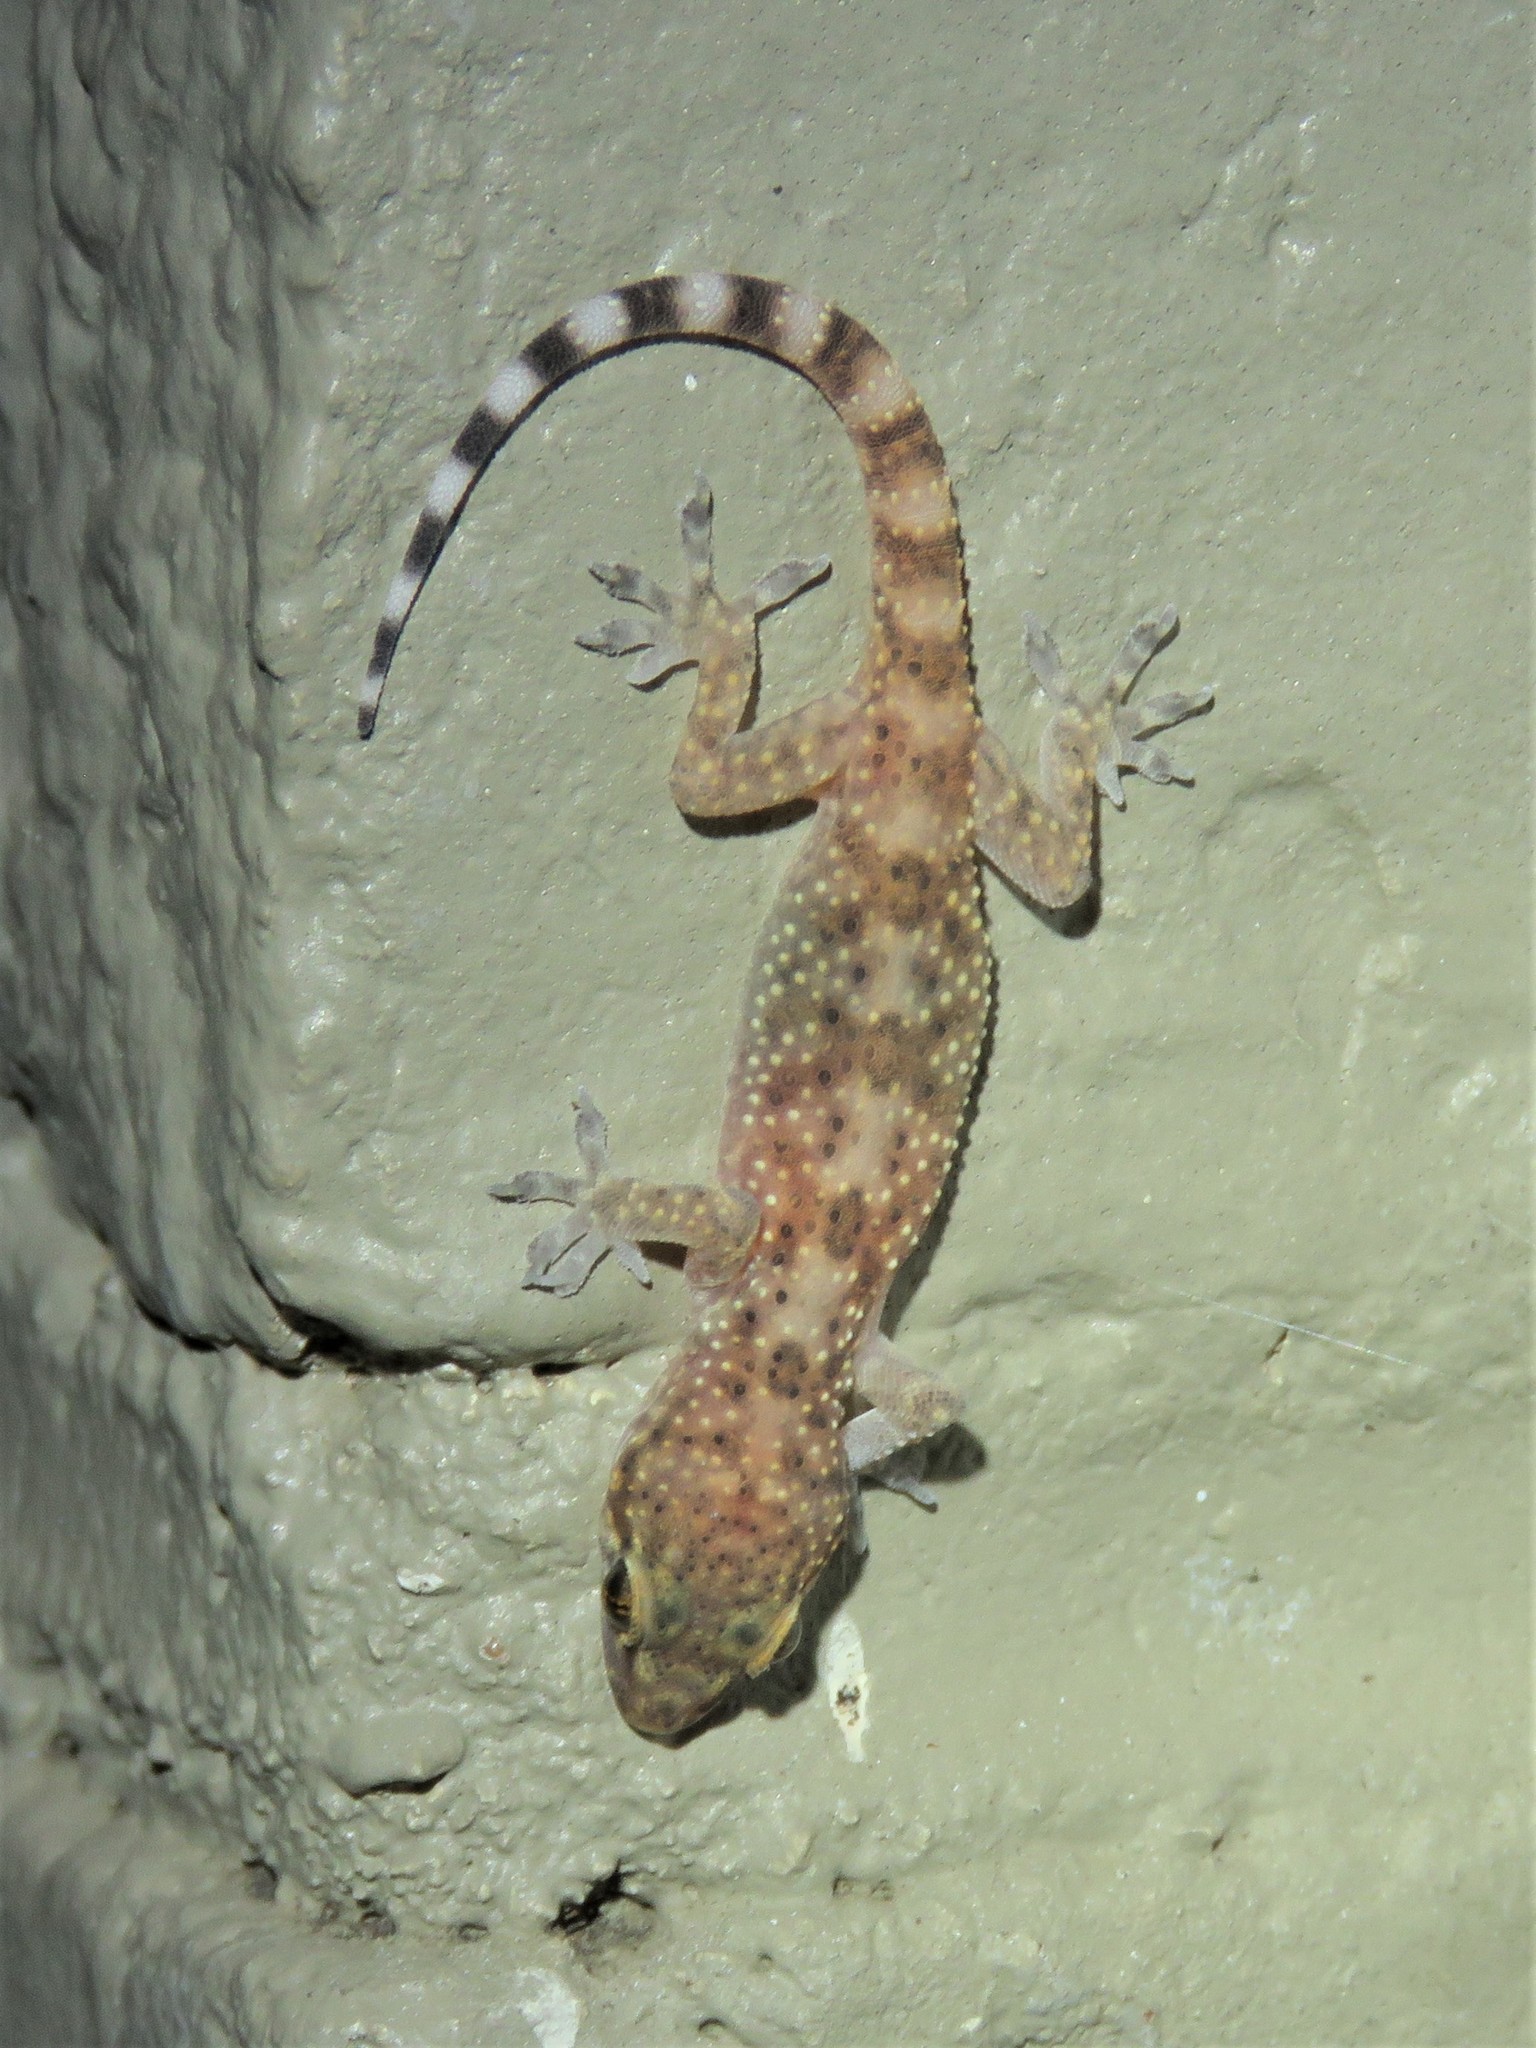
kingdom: Animalia
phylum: Chordata
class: Squamata
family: Gekkonidae
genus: Hemidactylus
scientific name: Hemidactylus turcicus
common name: Turkish gecko
